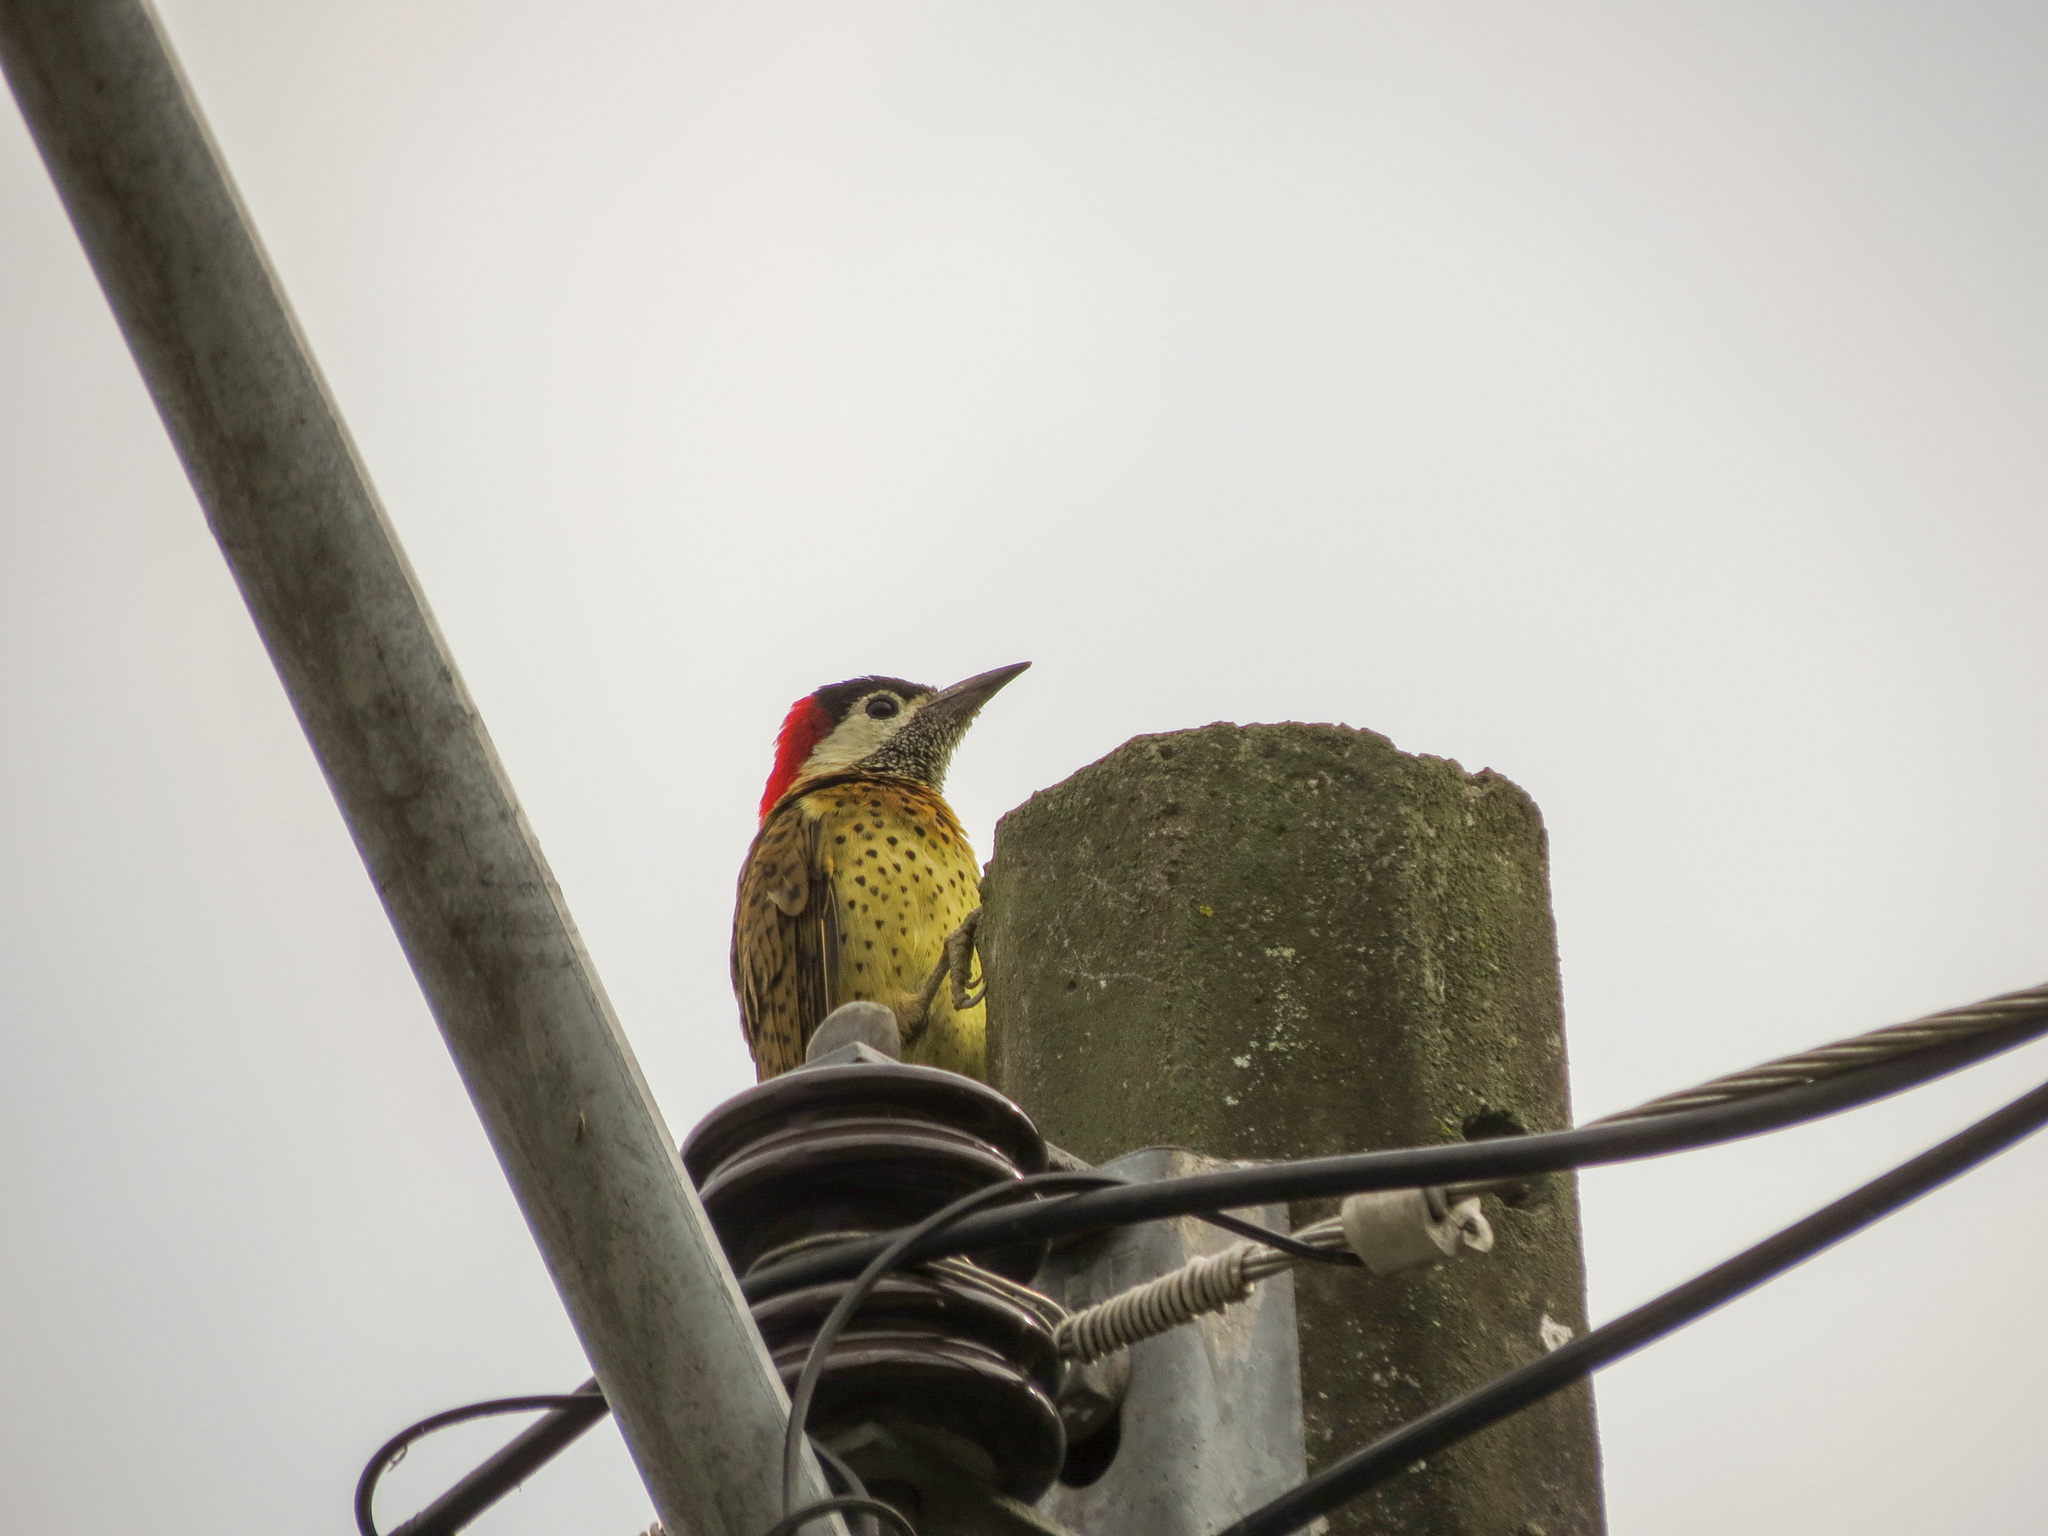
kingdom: Animalia
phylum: Chordata
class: Aves
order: Piciformes
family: Picidae
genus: Colaptes
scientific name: Colaptes punctigula
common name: Spot-breasted woodpecker
